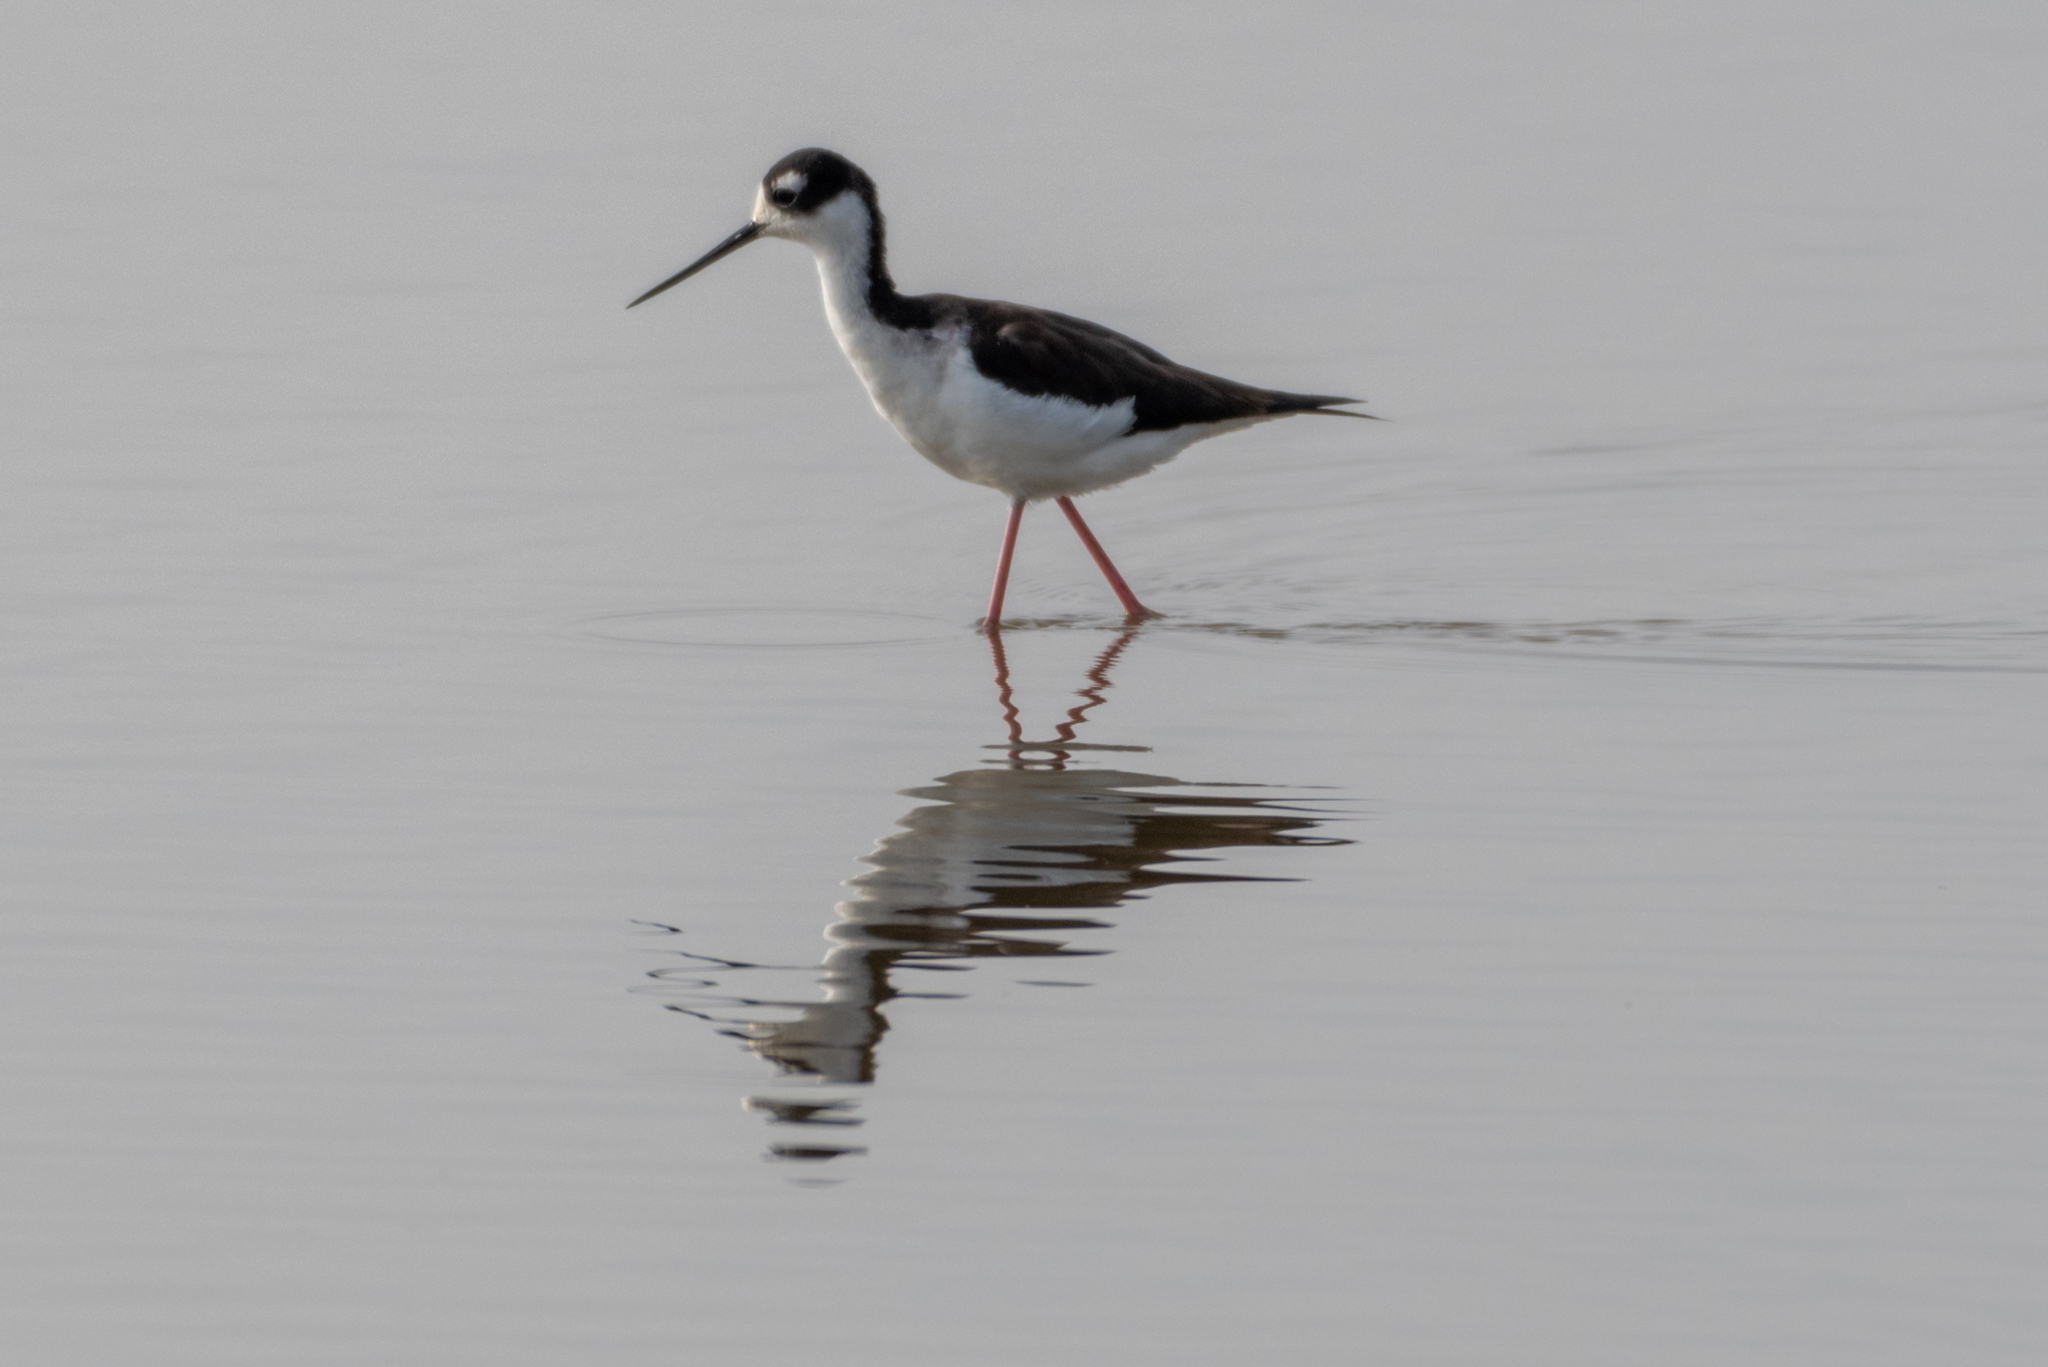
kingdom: Animalia
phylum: Chordata
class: Aves
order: Charadriiformes
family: Recurvirostridae
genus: Himantopus
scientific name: Himantopus mexicanus
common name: Black-necked stilt
